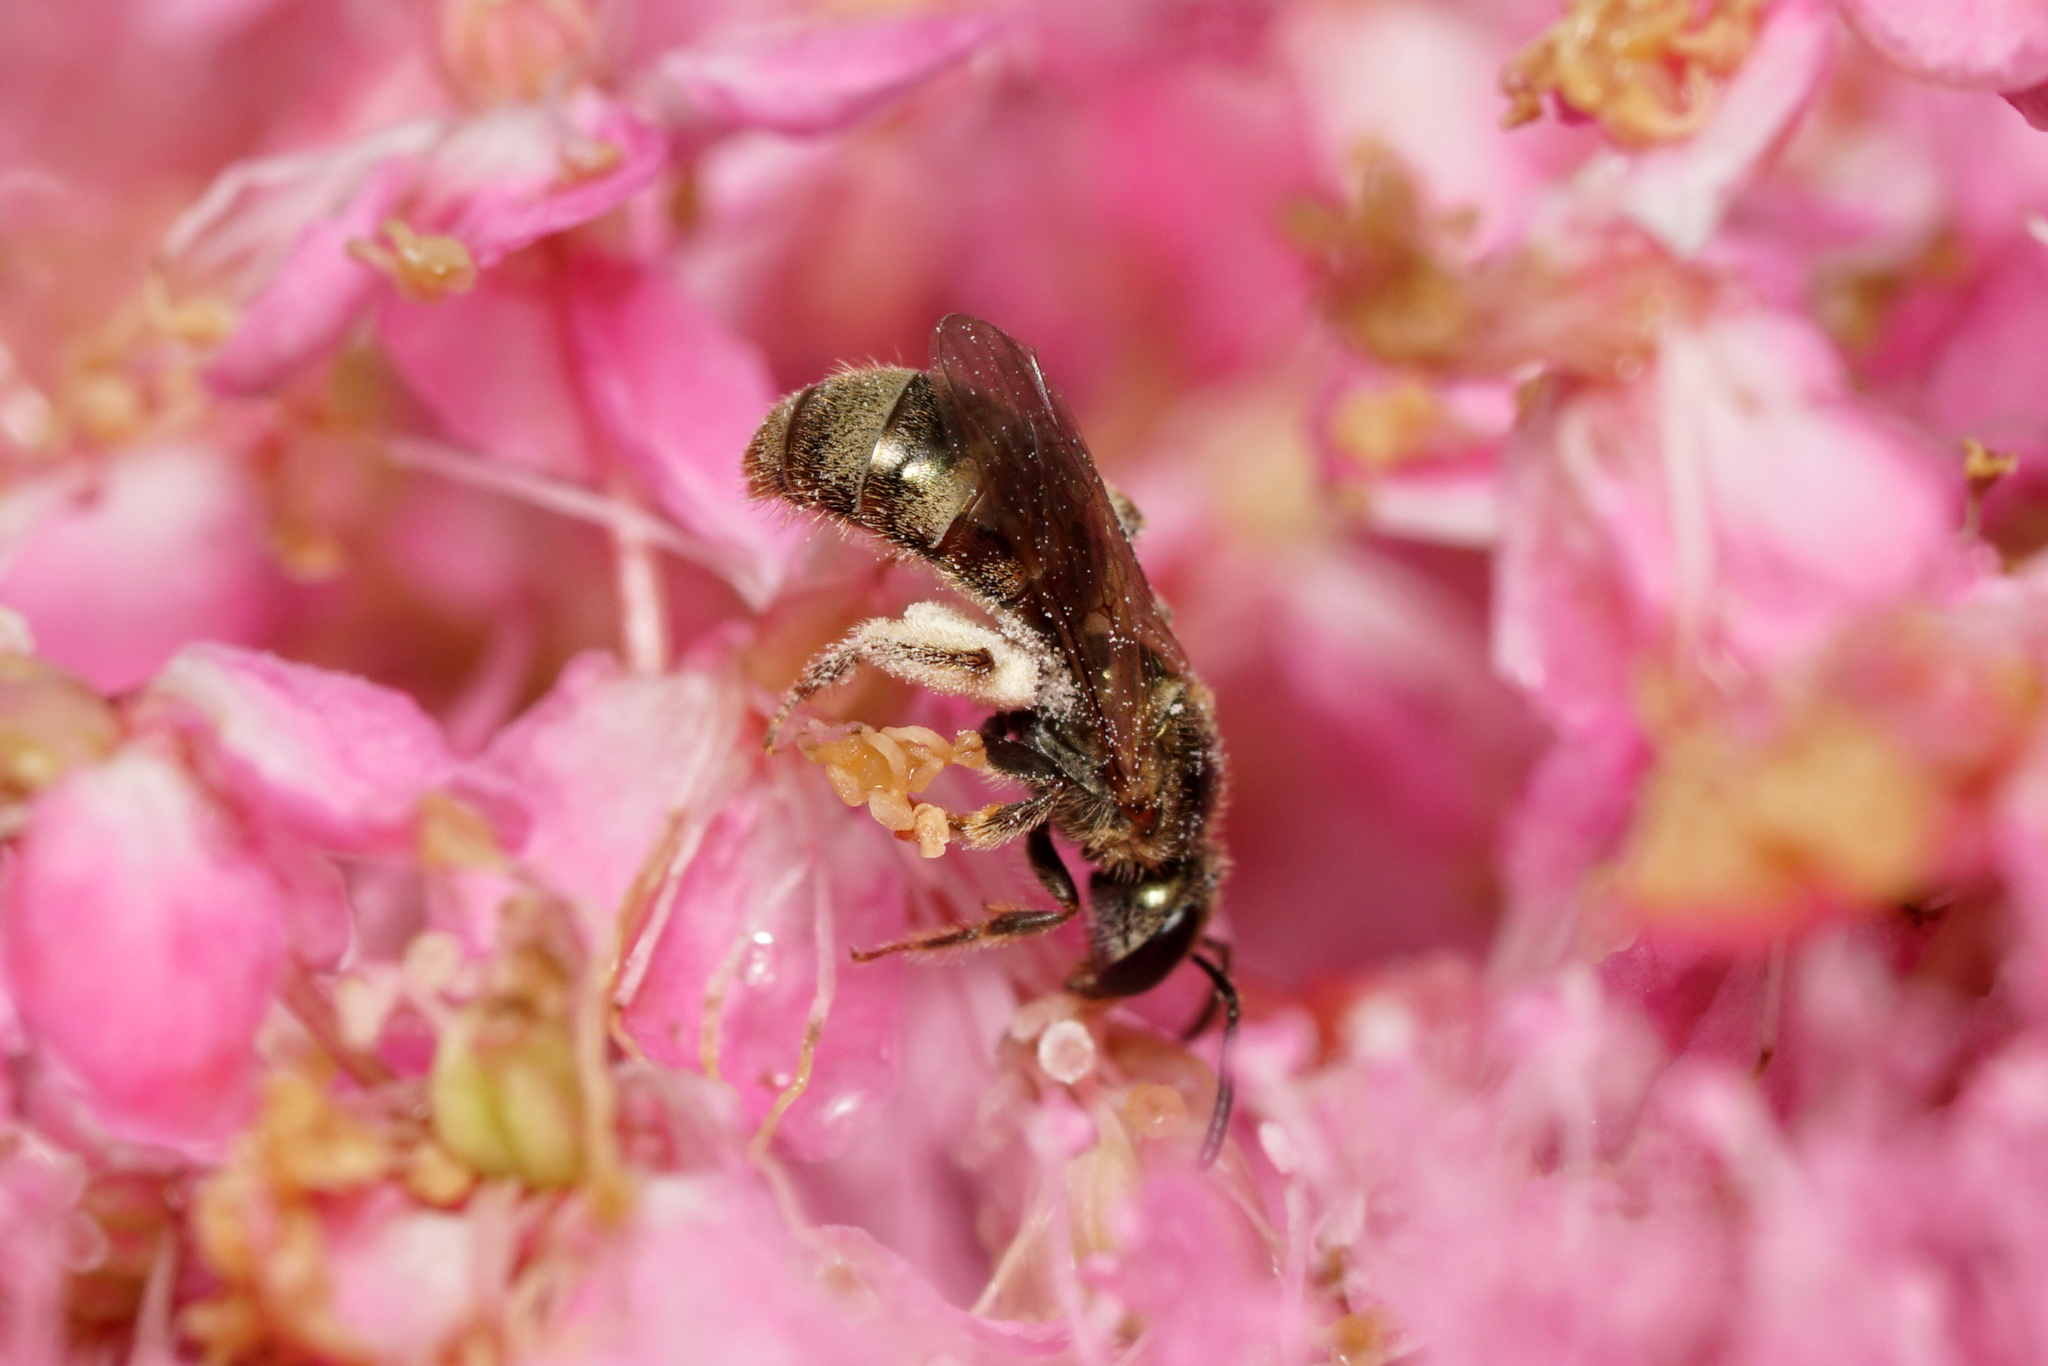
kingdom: Animalia
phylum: Arthropoda
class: Insecta
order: Hymenoptera
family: Halictidae
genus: Dialictus
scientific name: Dialictus
